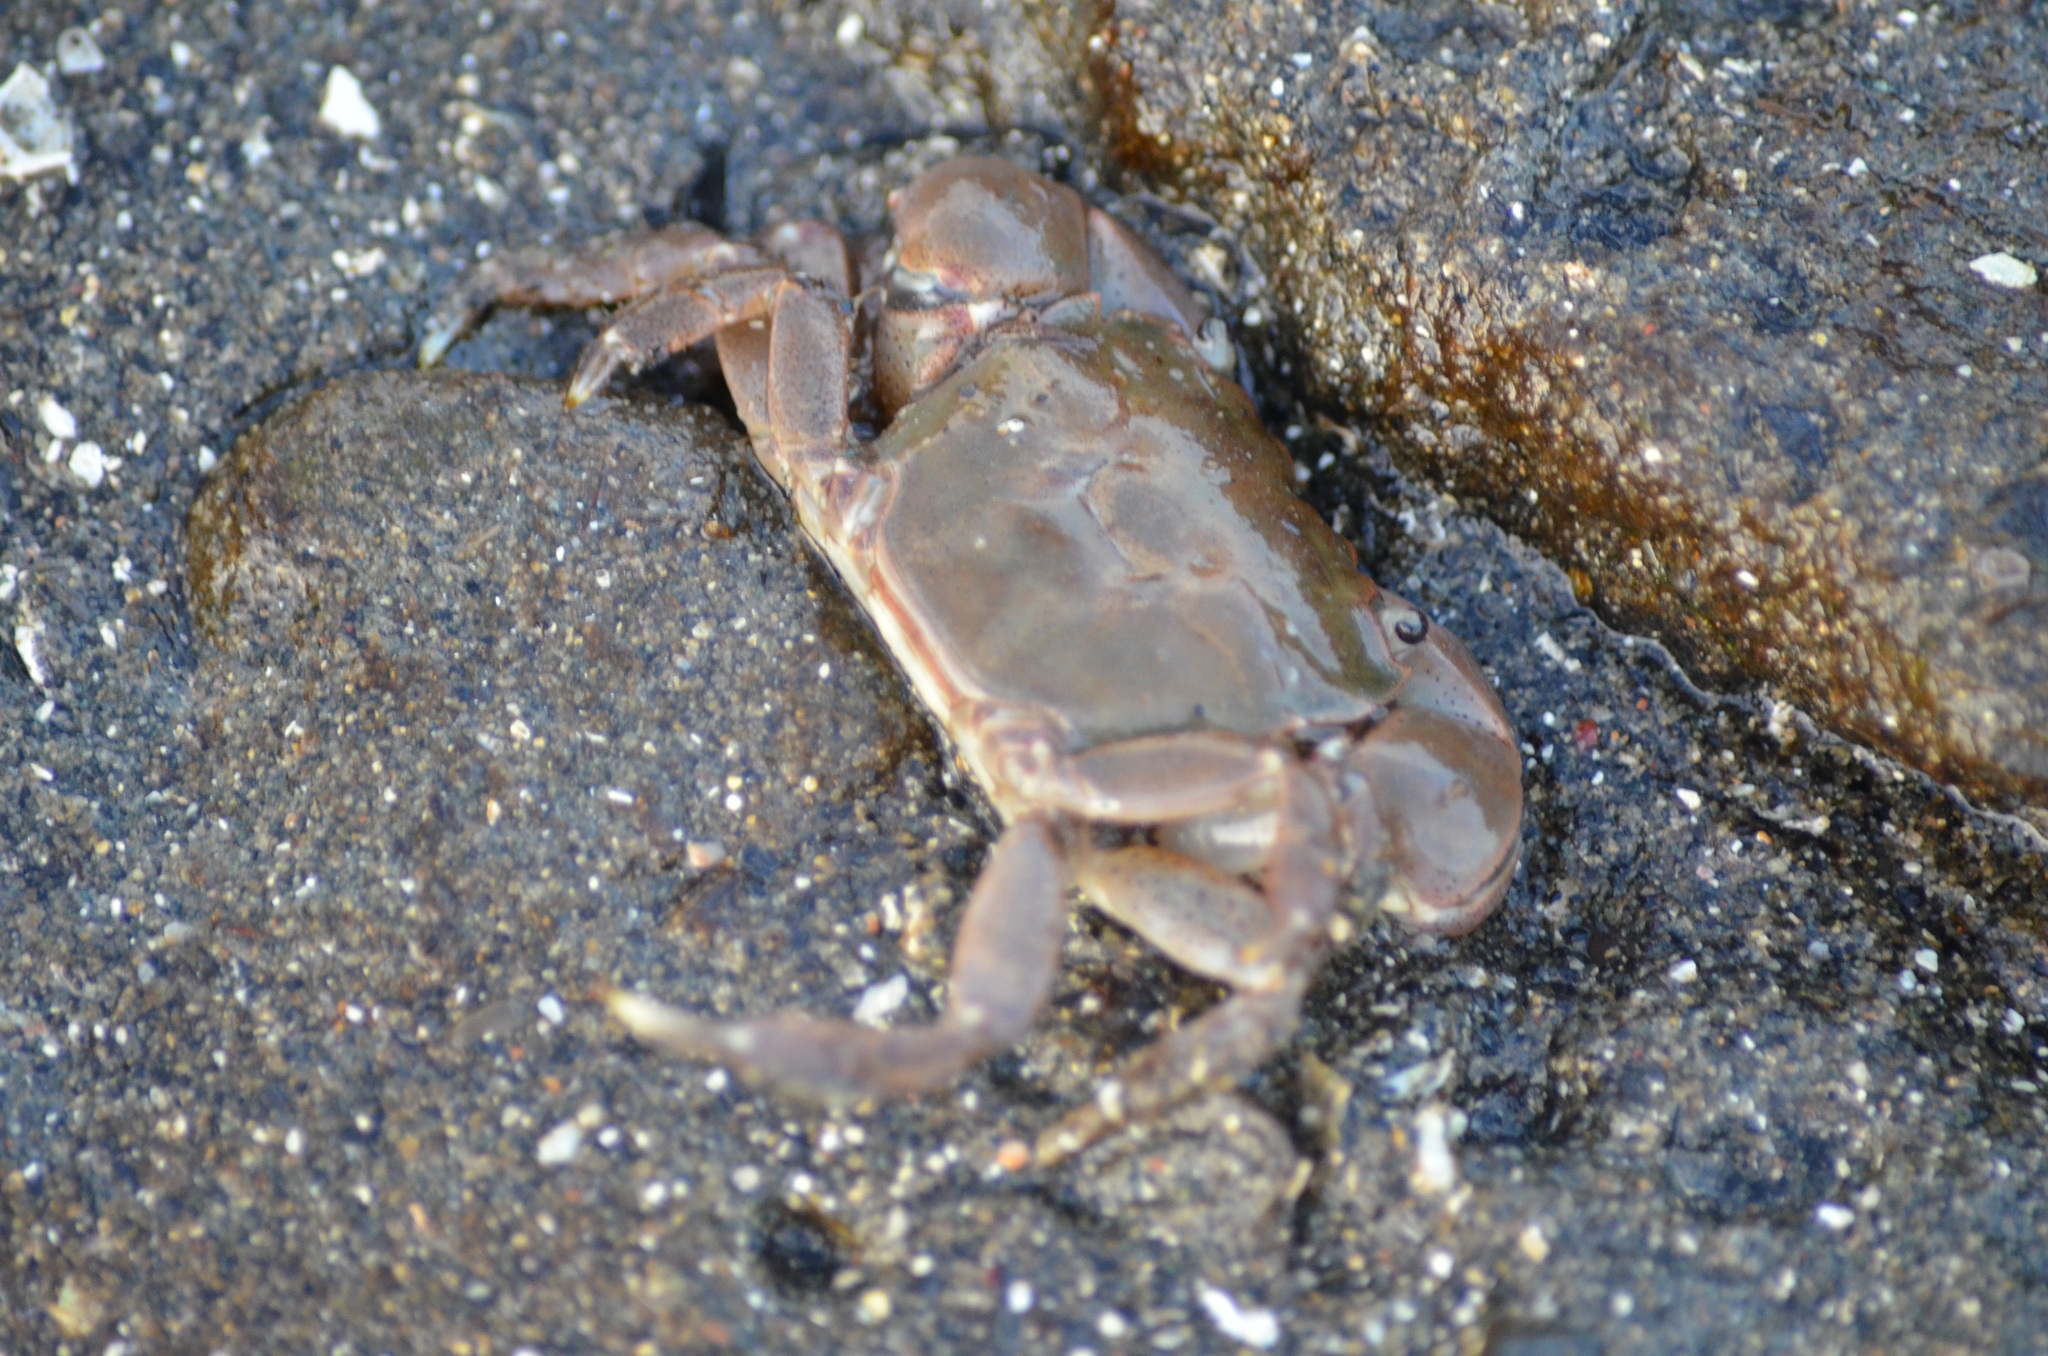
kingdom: Animalia
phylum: Arthropoda
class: Malacostraca
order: Decapoda
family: Varunidae
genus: Hemigrapsus
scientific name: Hemigrapsus oregonensis
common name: Yellow shore crab
